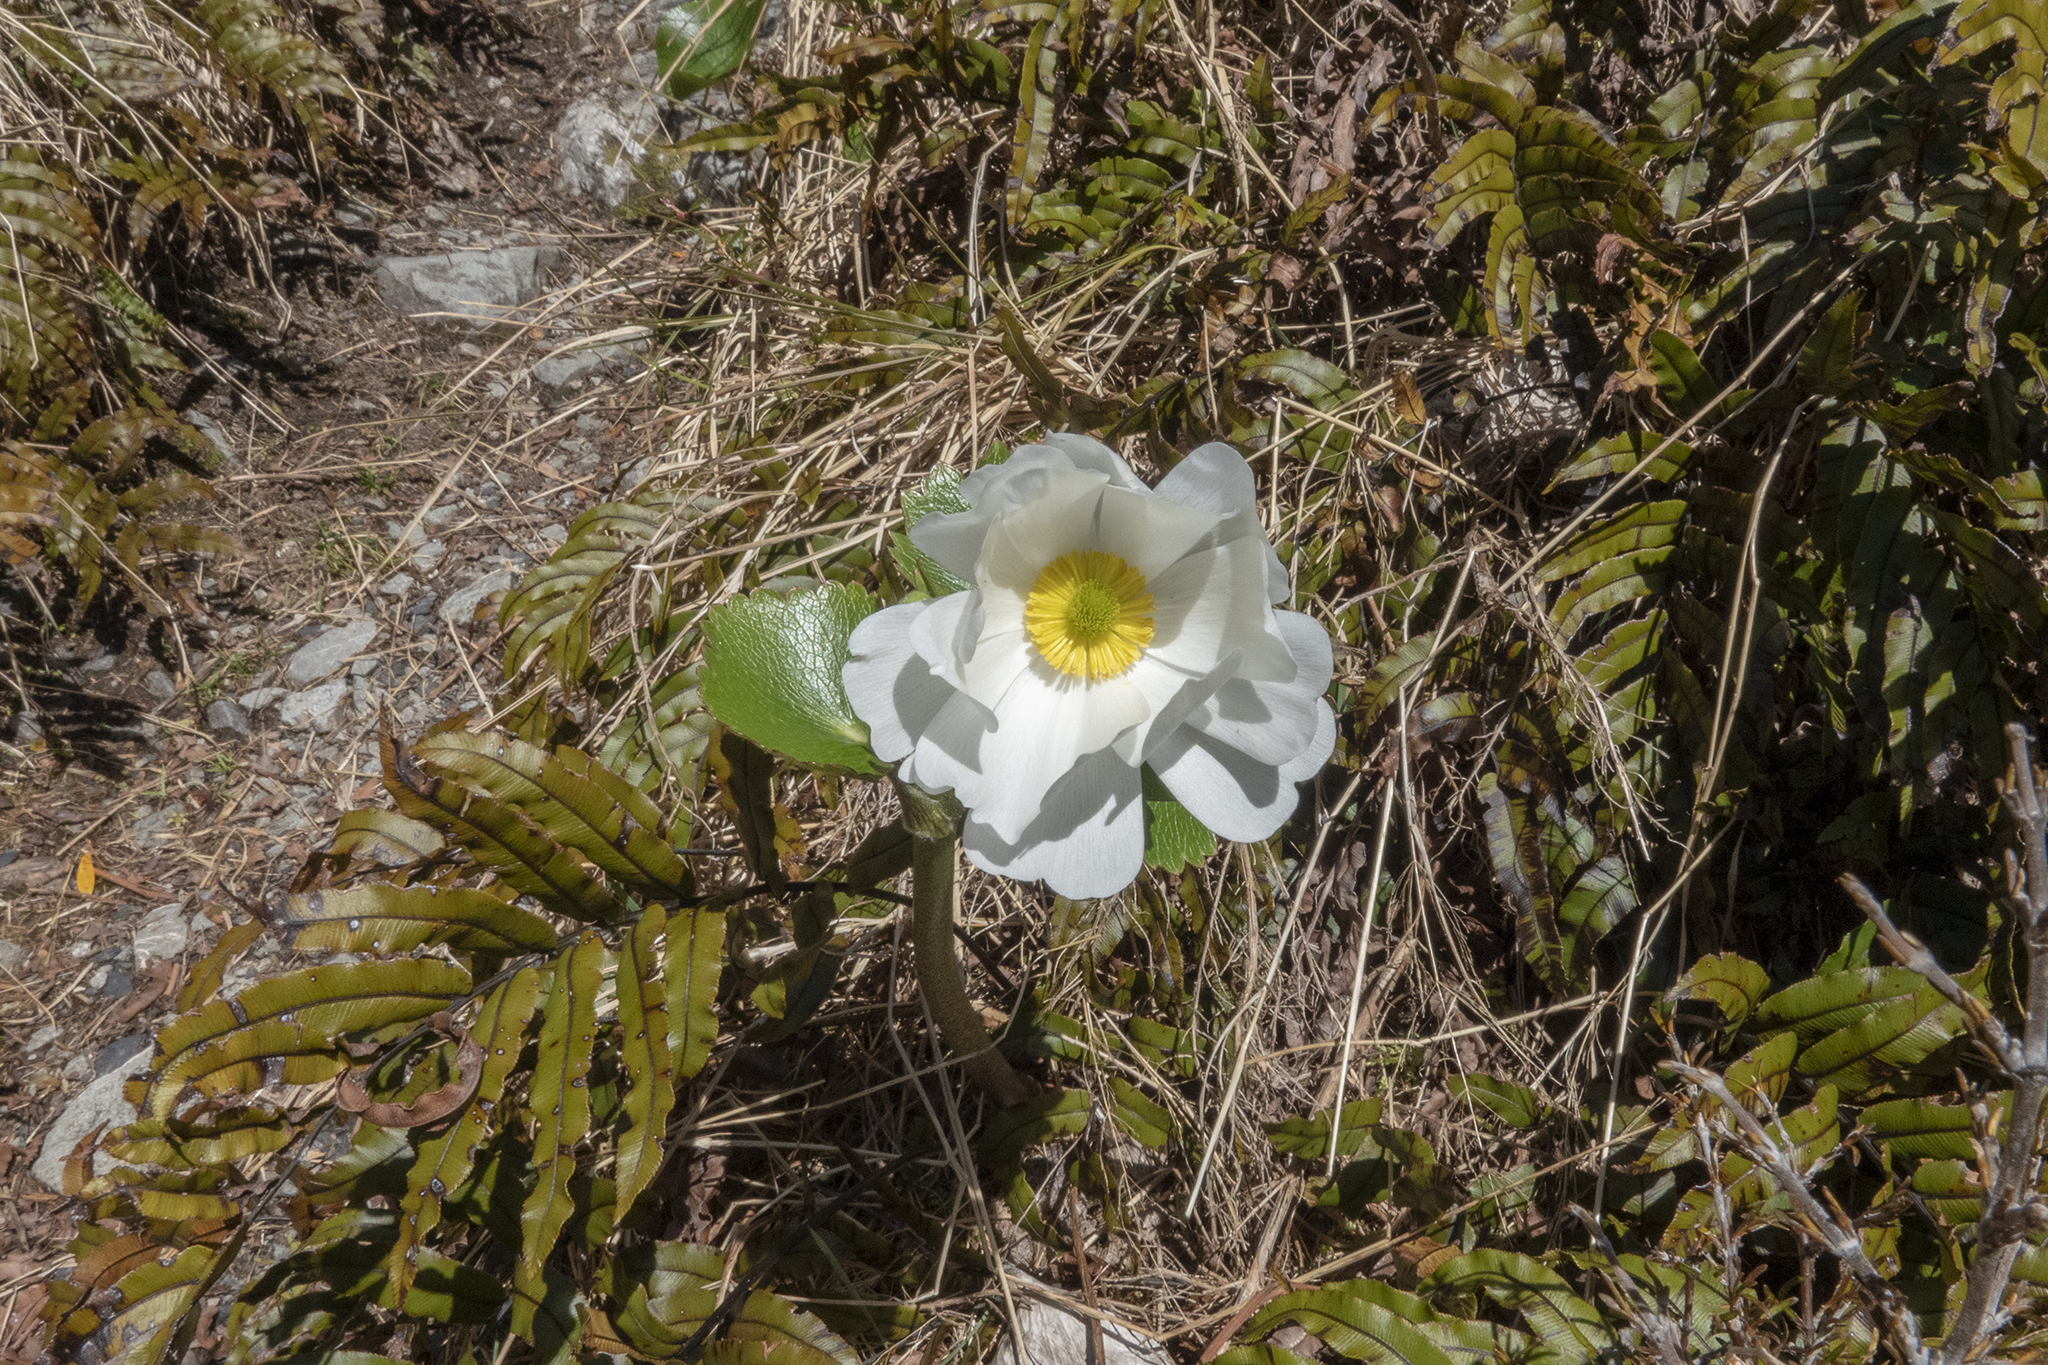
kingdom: Plantae
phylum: Tracheophyta
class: Magnoliopsida
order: Ranunculales
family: Ranunculaceae
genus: Ranunculus
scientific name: Ranunculus lyallii
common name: Mountain-lily
